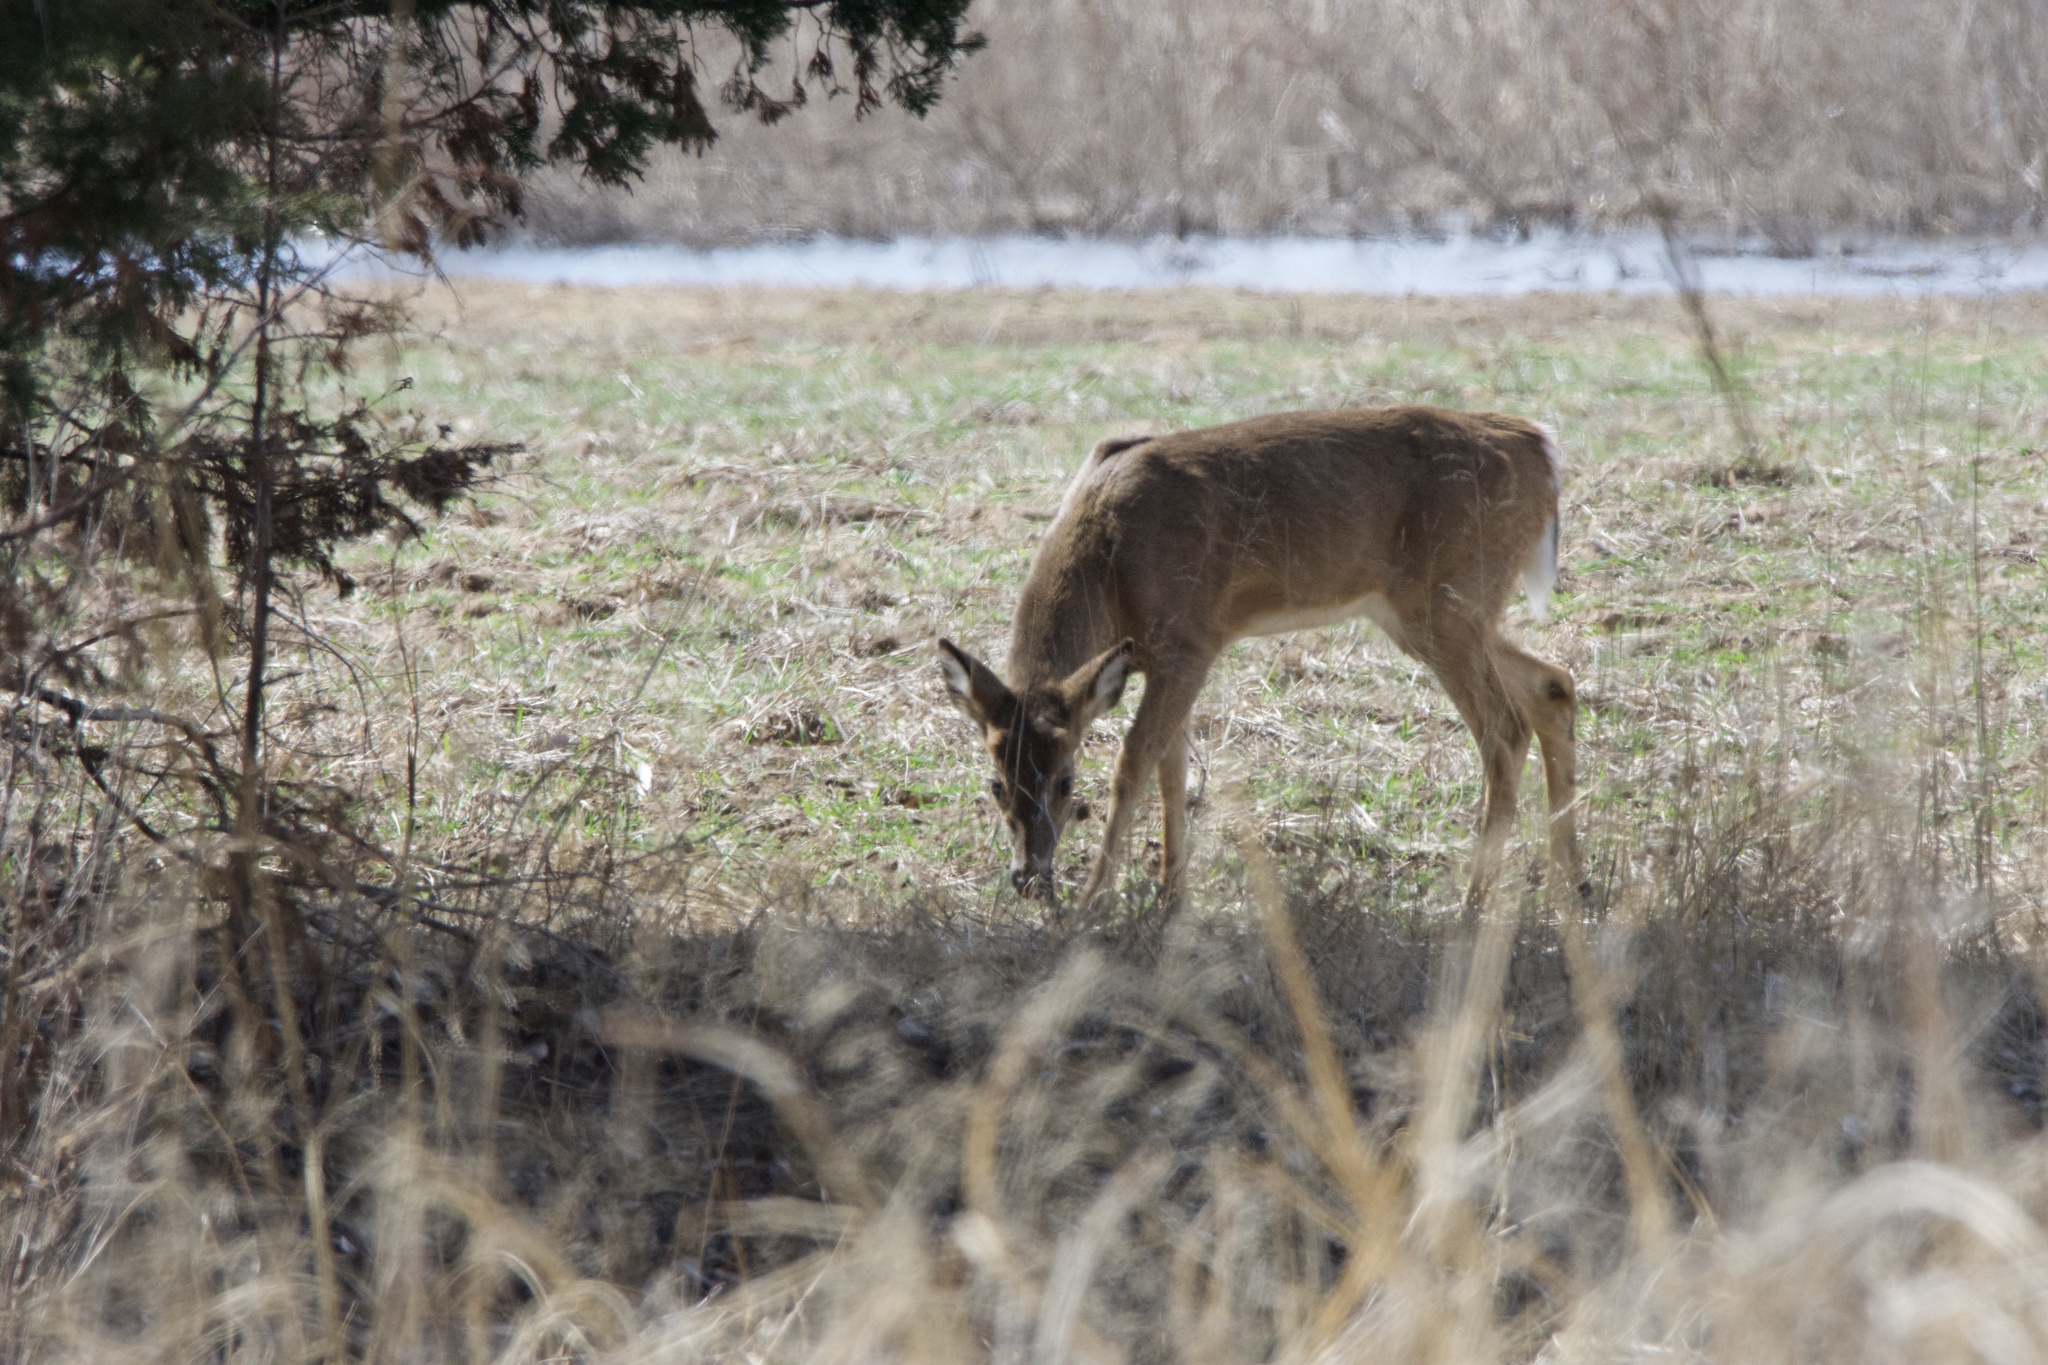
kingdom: Animalia
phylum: Chordata
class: Mammalia
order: Artiodactyla
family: Cervidae
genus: Odocoileus
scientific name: Odocoileus virginianus
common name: White-tailed deer
